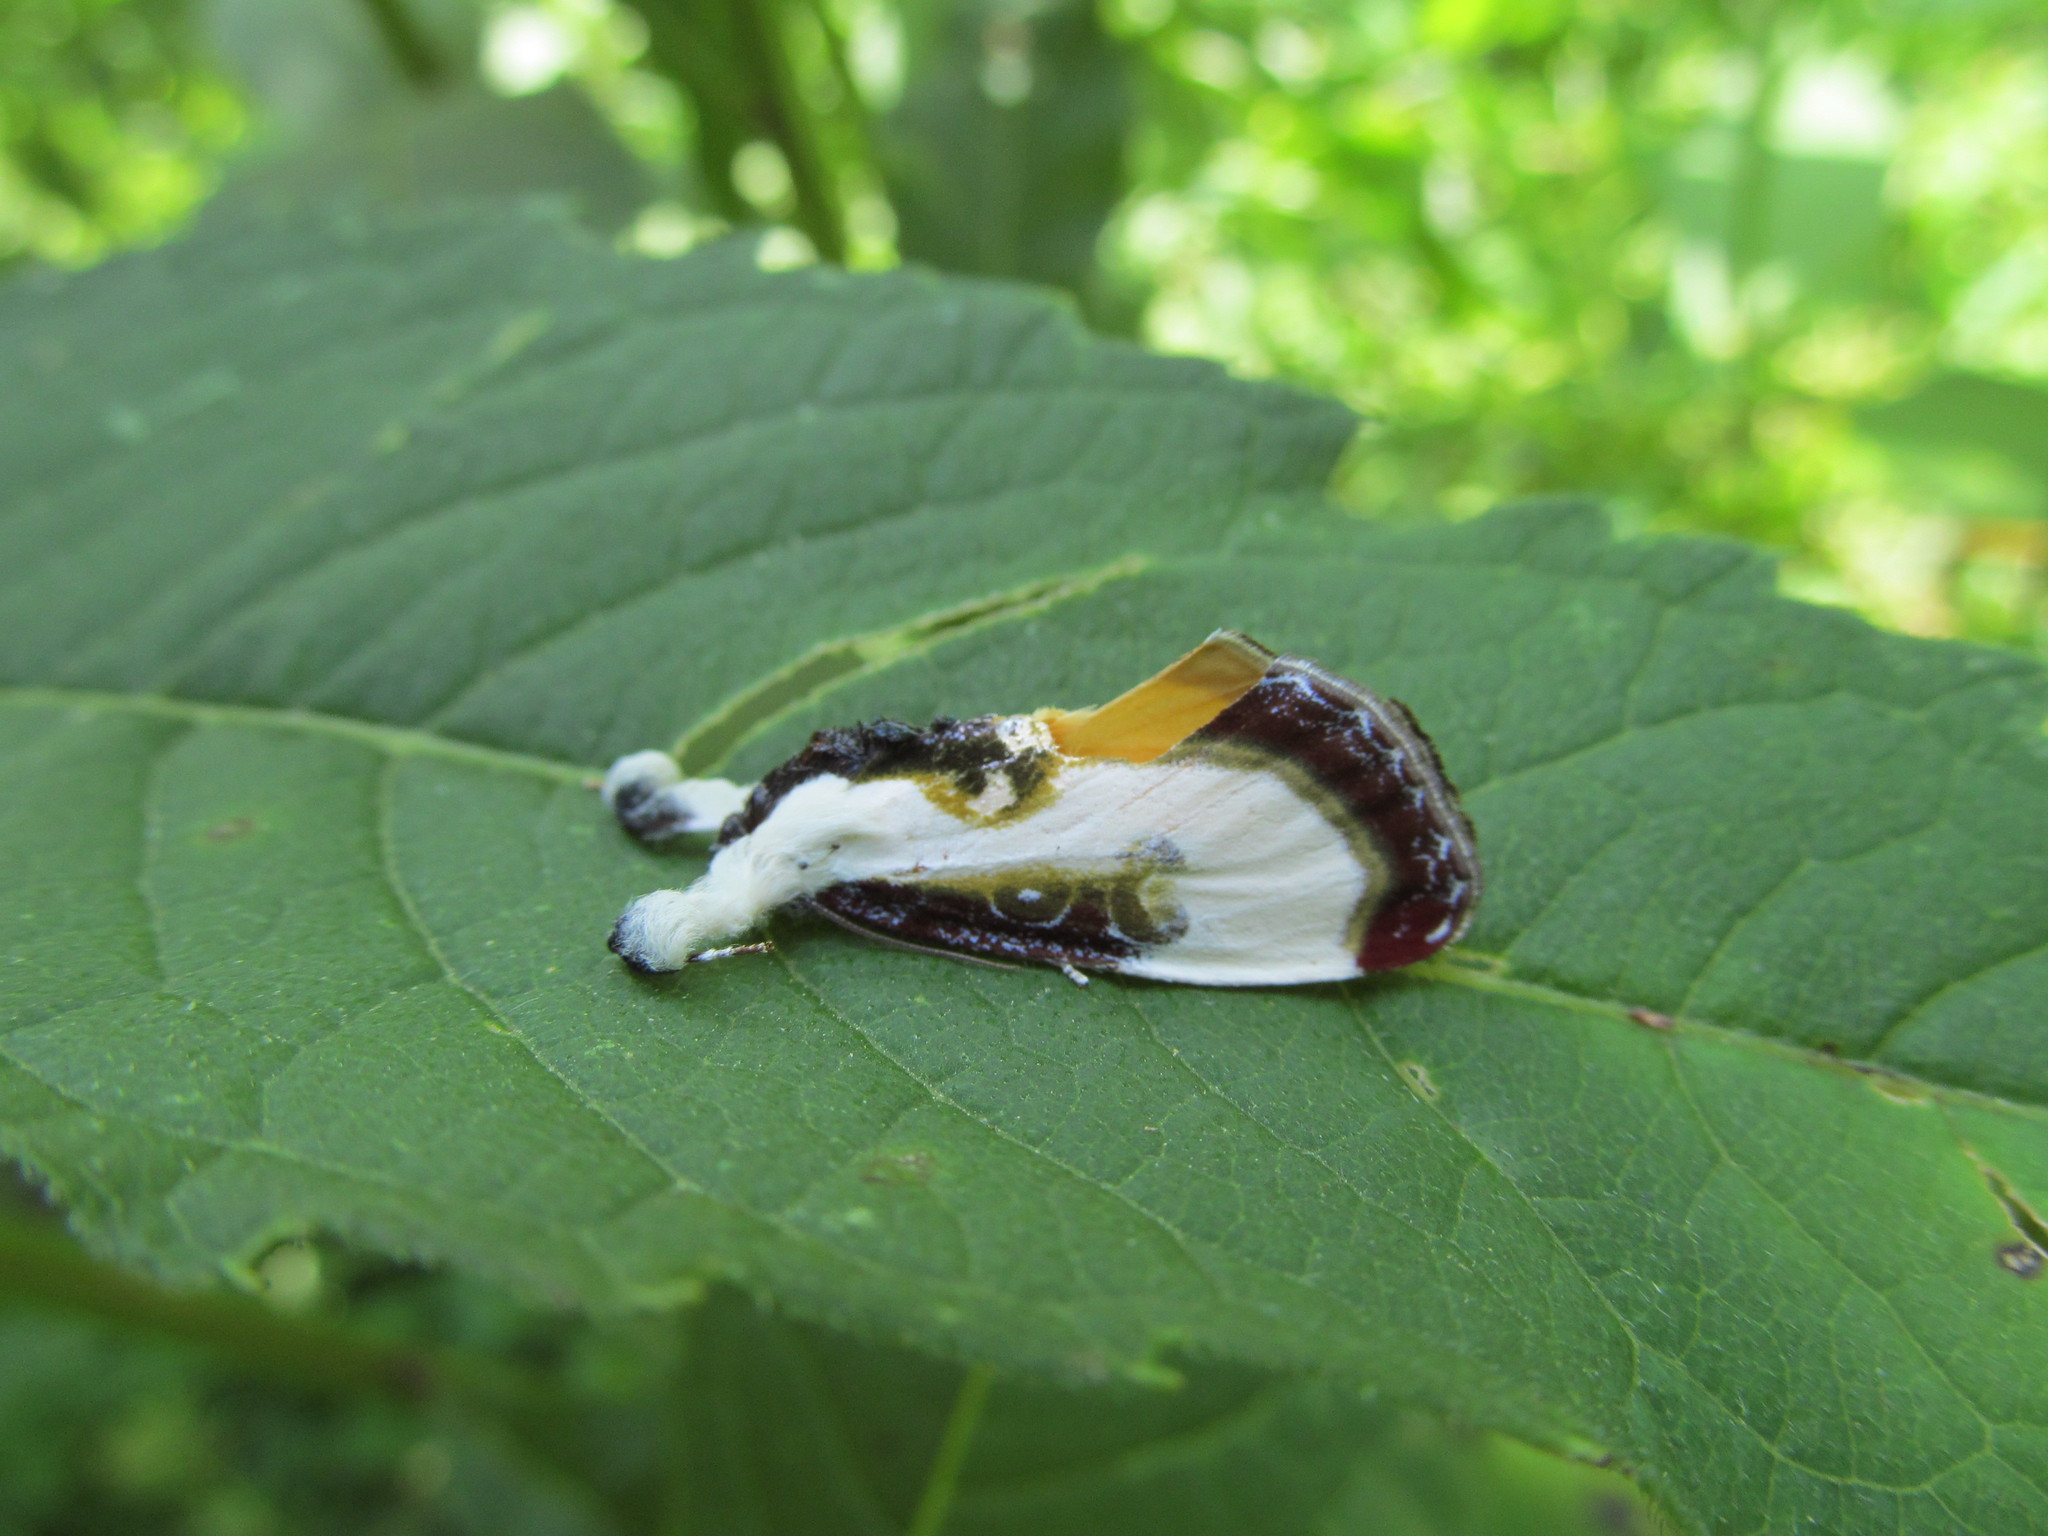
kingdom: Animalia
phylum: Arthropoda
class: Insecta
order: Lepidoptera
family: Noctuidae
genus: Eudryas
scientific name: Eudryas grata
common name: Beautiful wood-nymph
